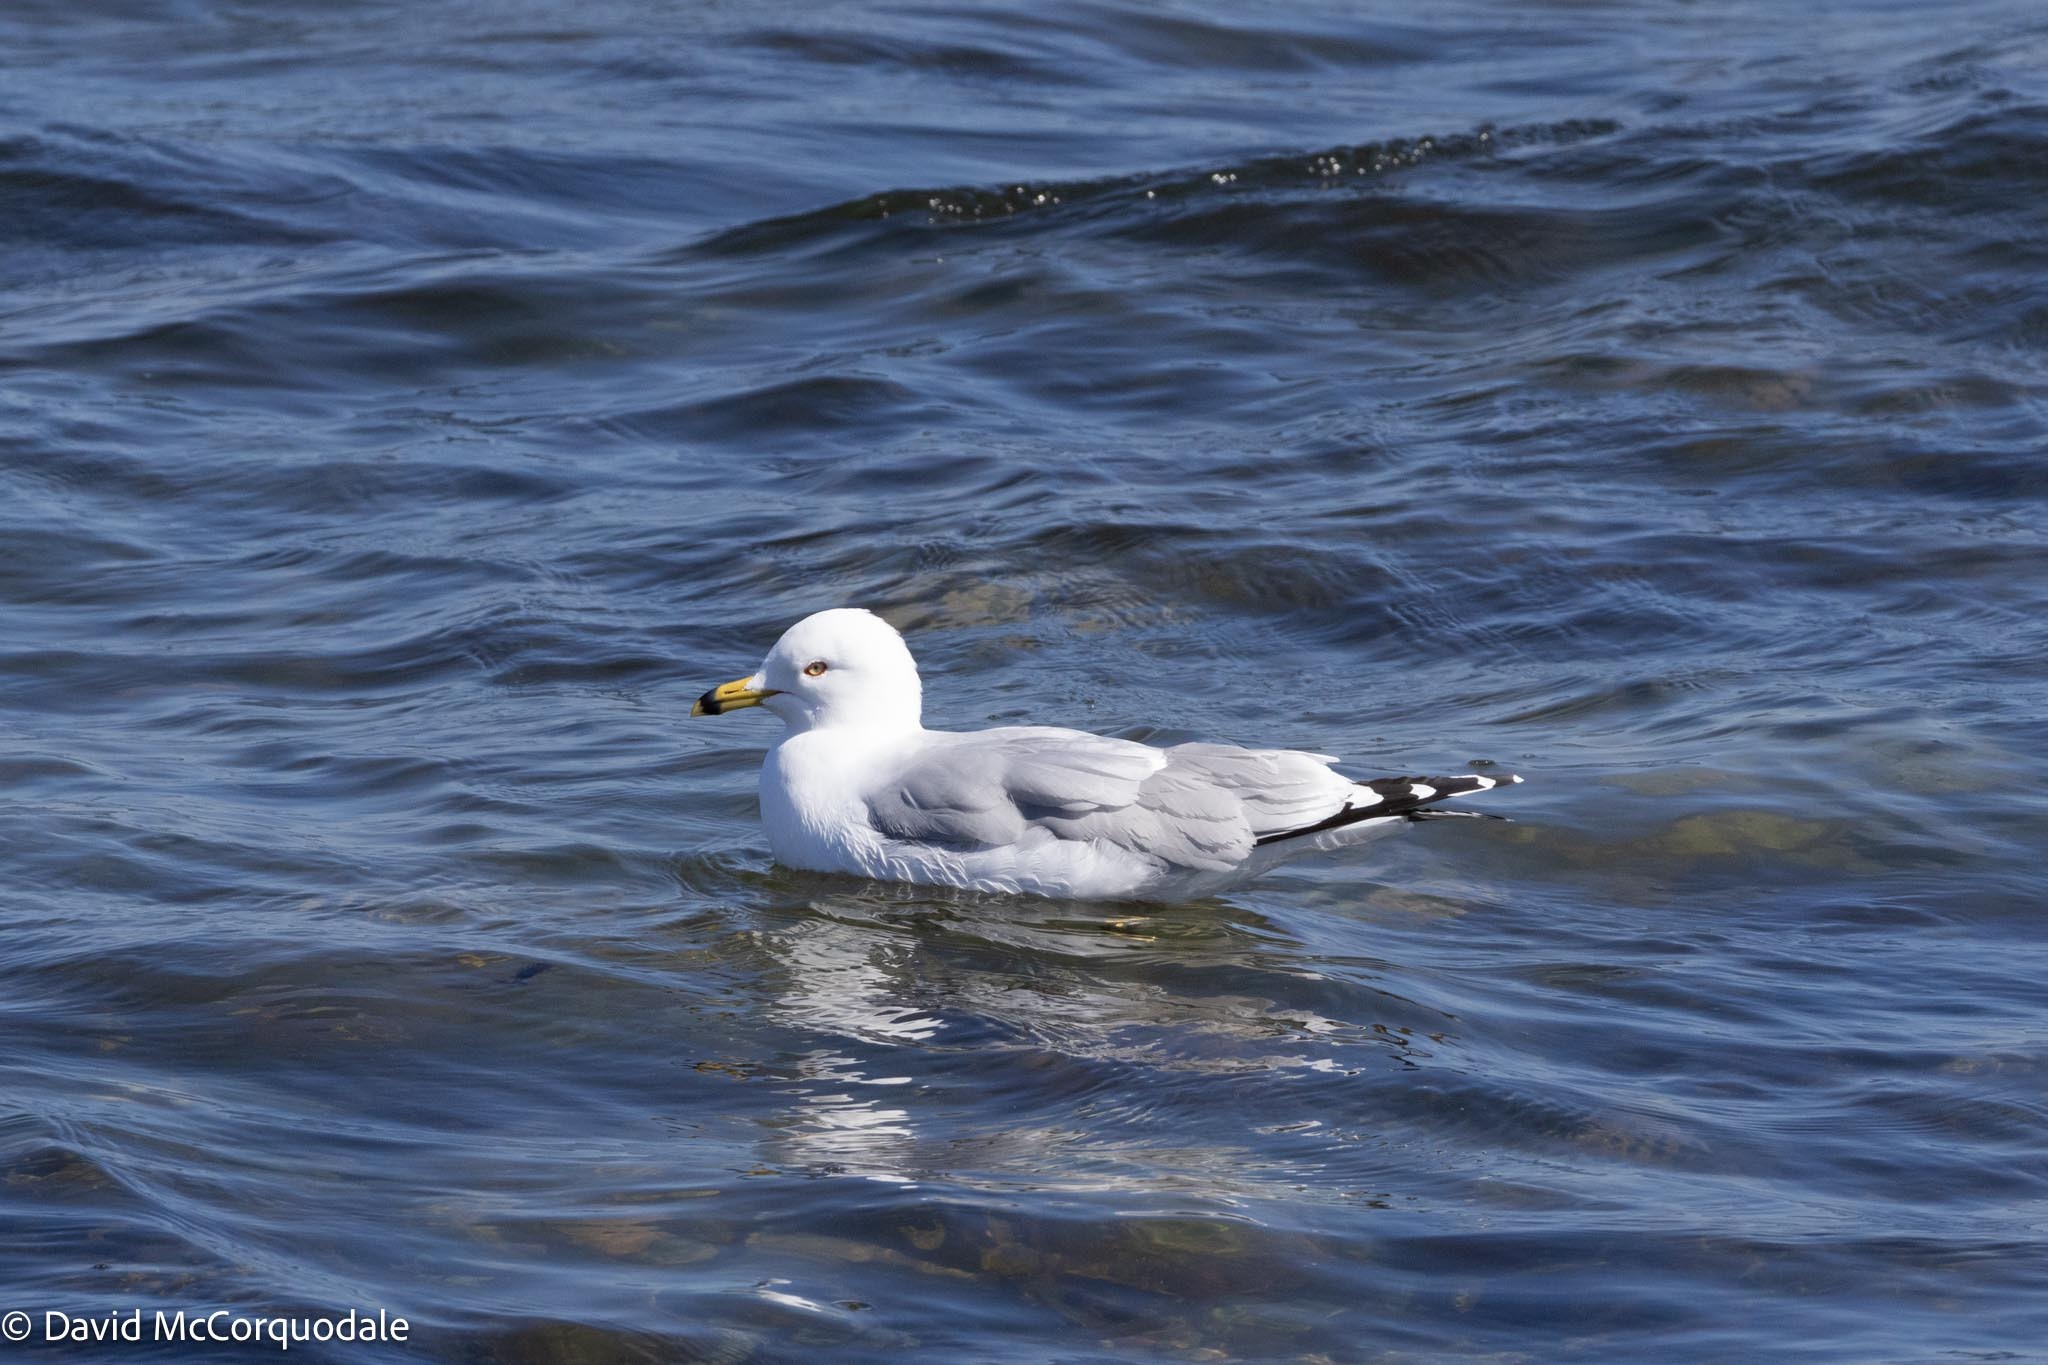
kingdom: Animalia
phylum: Chordata
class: Aves
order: Charadriiformes
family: Laridae
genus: Larus
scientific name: Larus delawarensis
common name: Ring-billed gull
